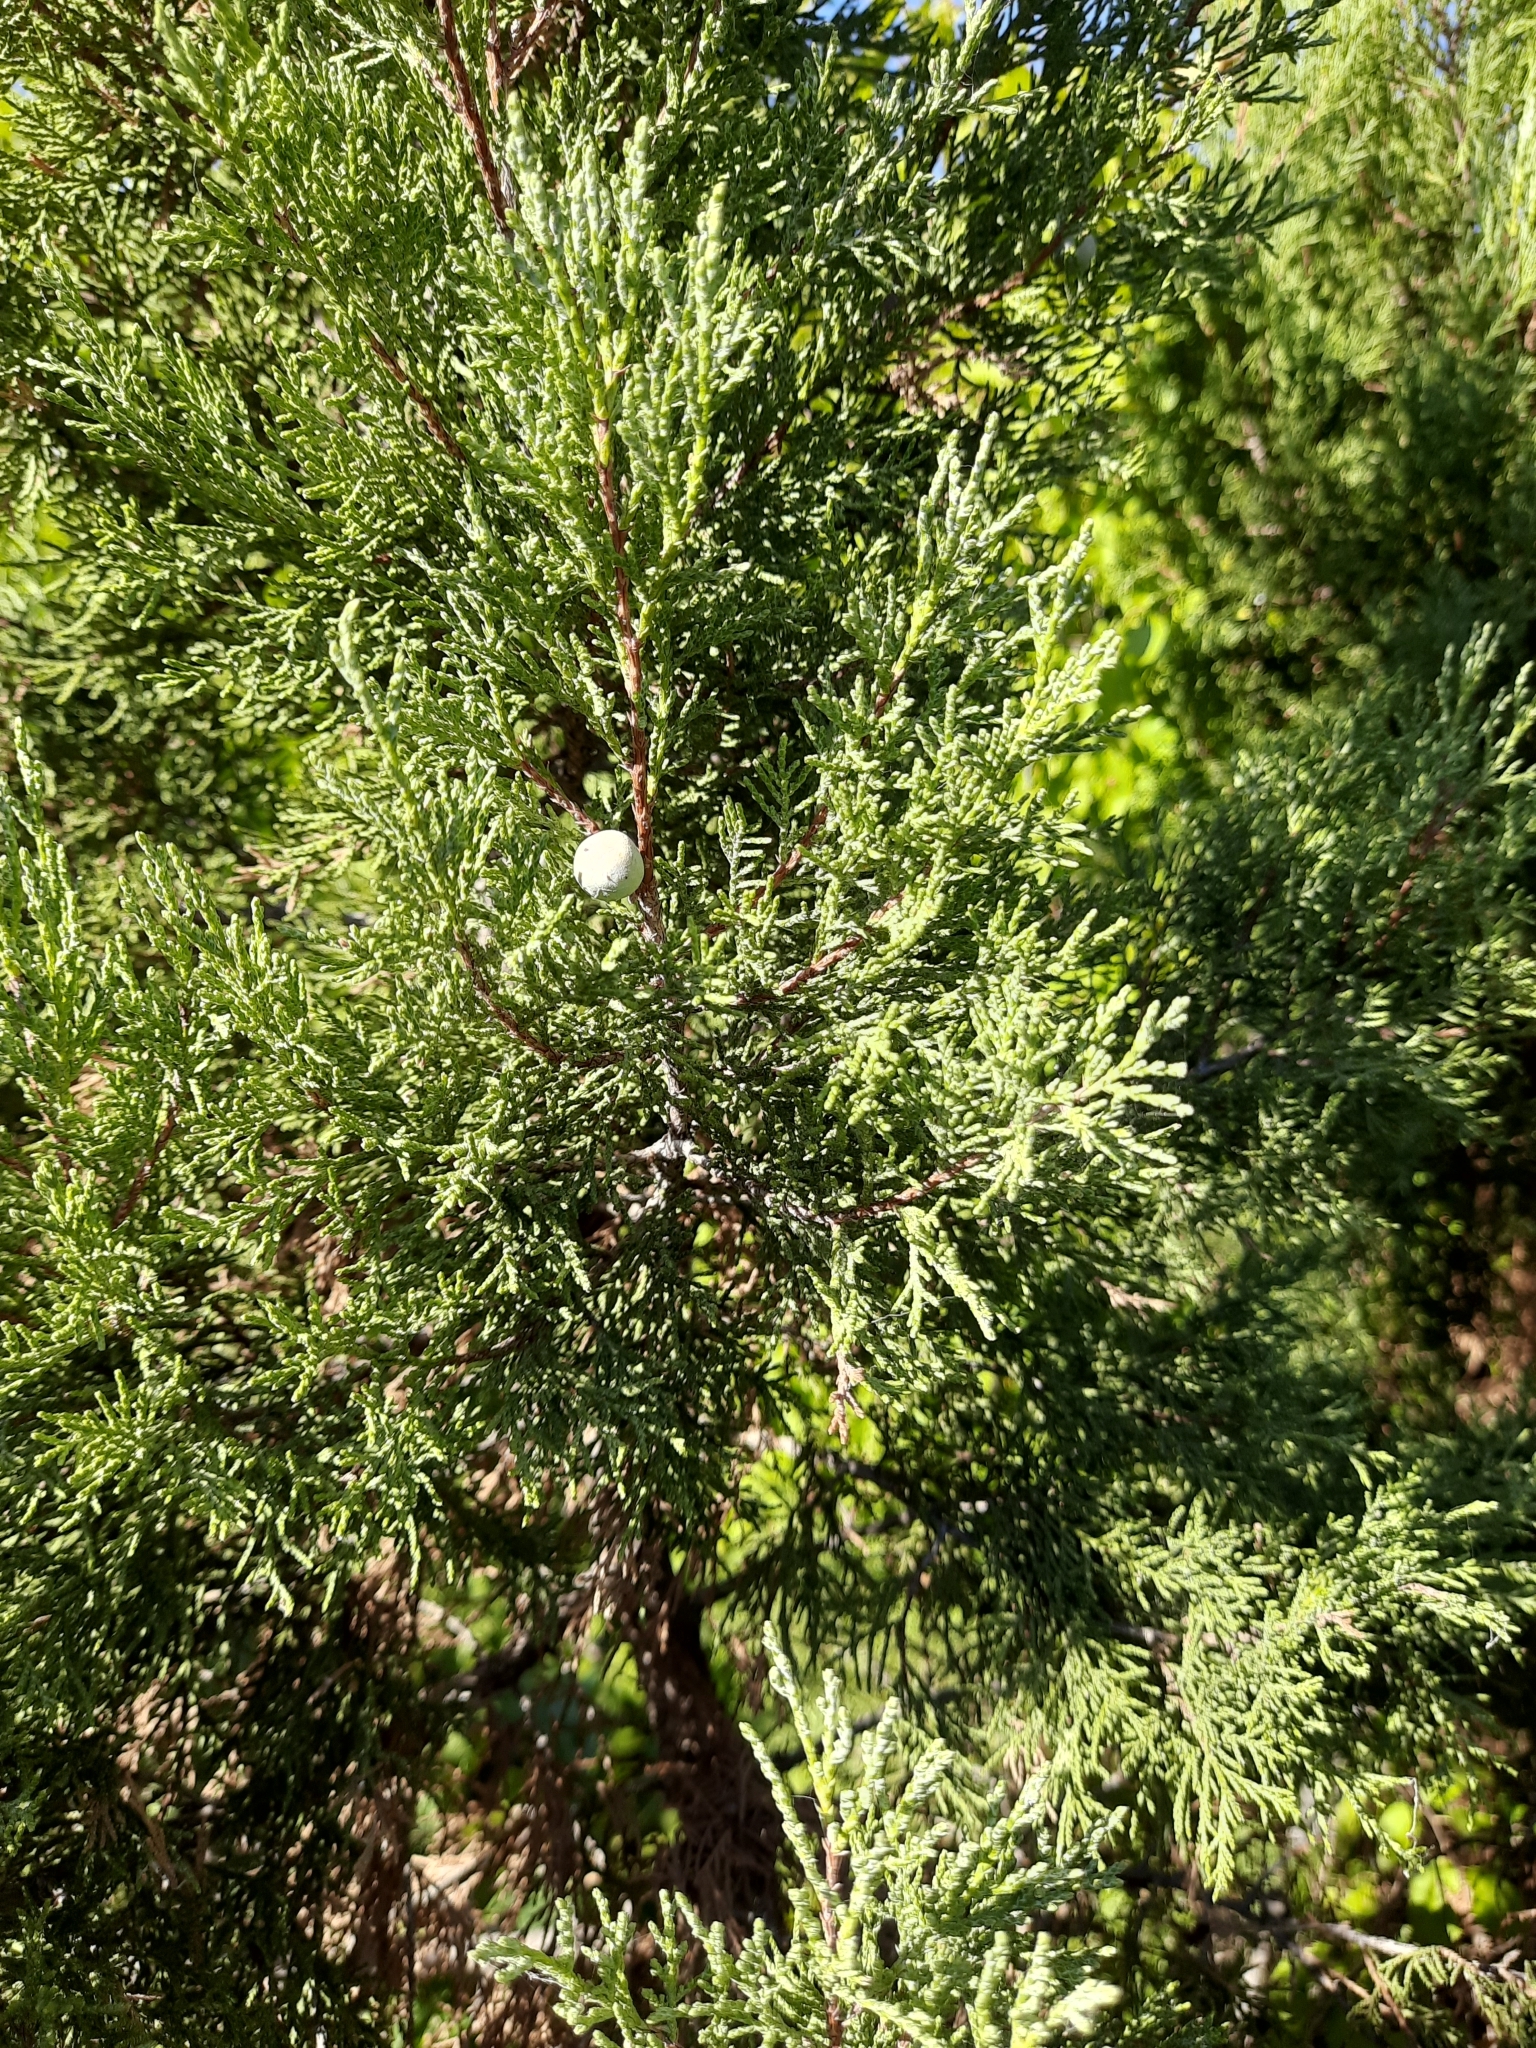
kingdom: Plantae
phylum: Tracheophyta
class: Pinopsida
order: Pinales
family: Cupressaceae
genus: Juniperus
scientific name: Juniperus excelsa
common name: Crimean juniper
